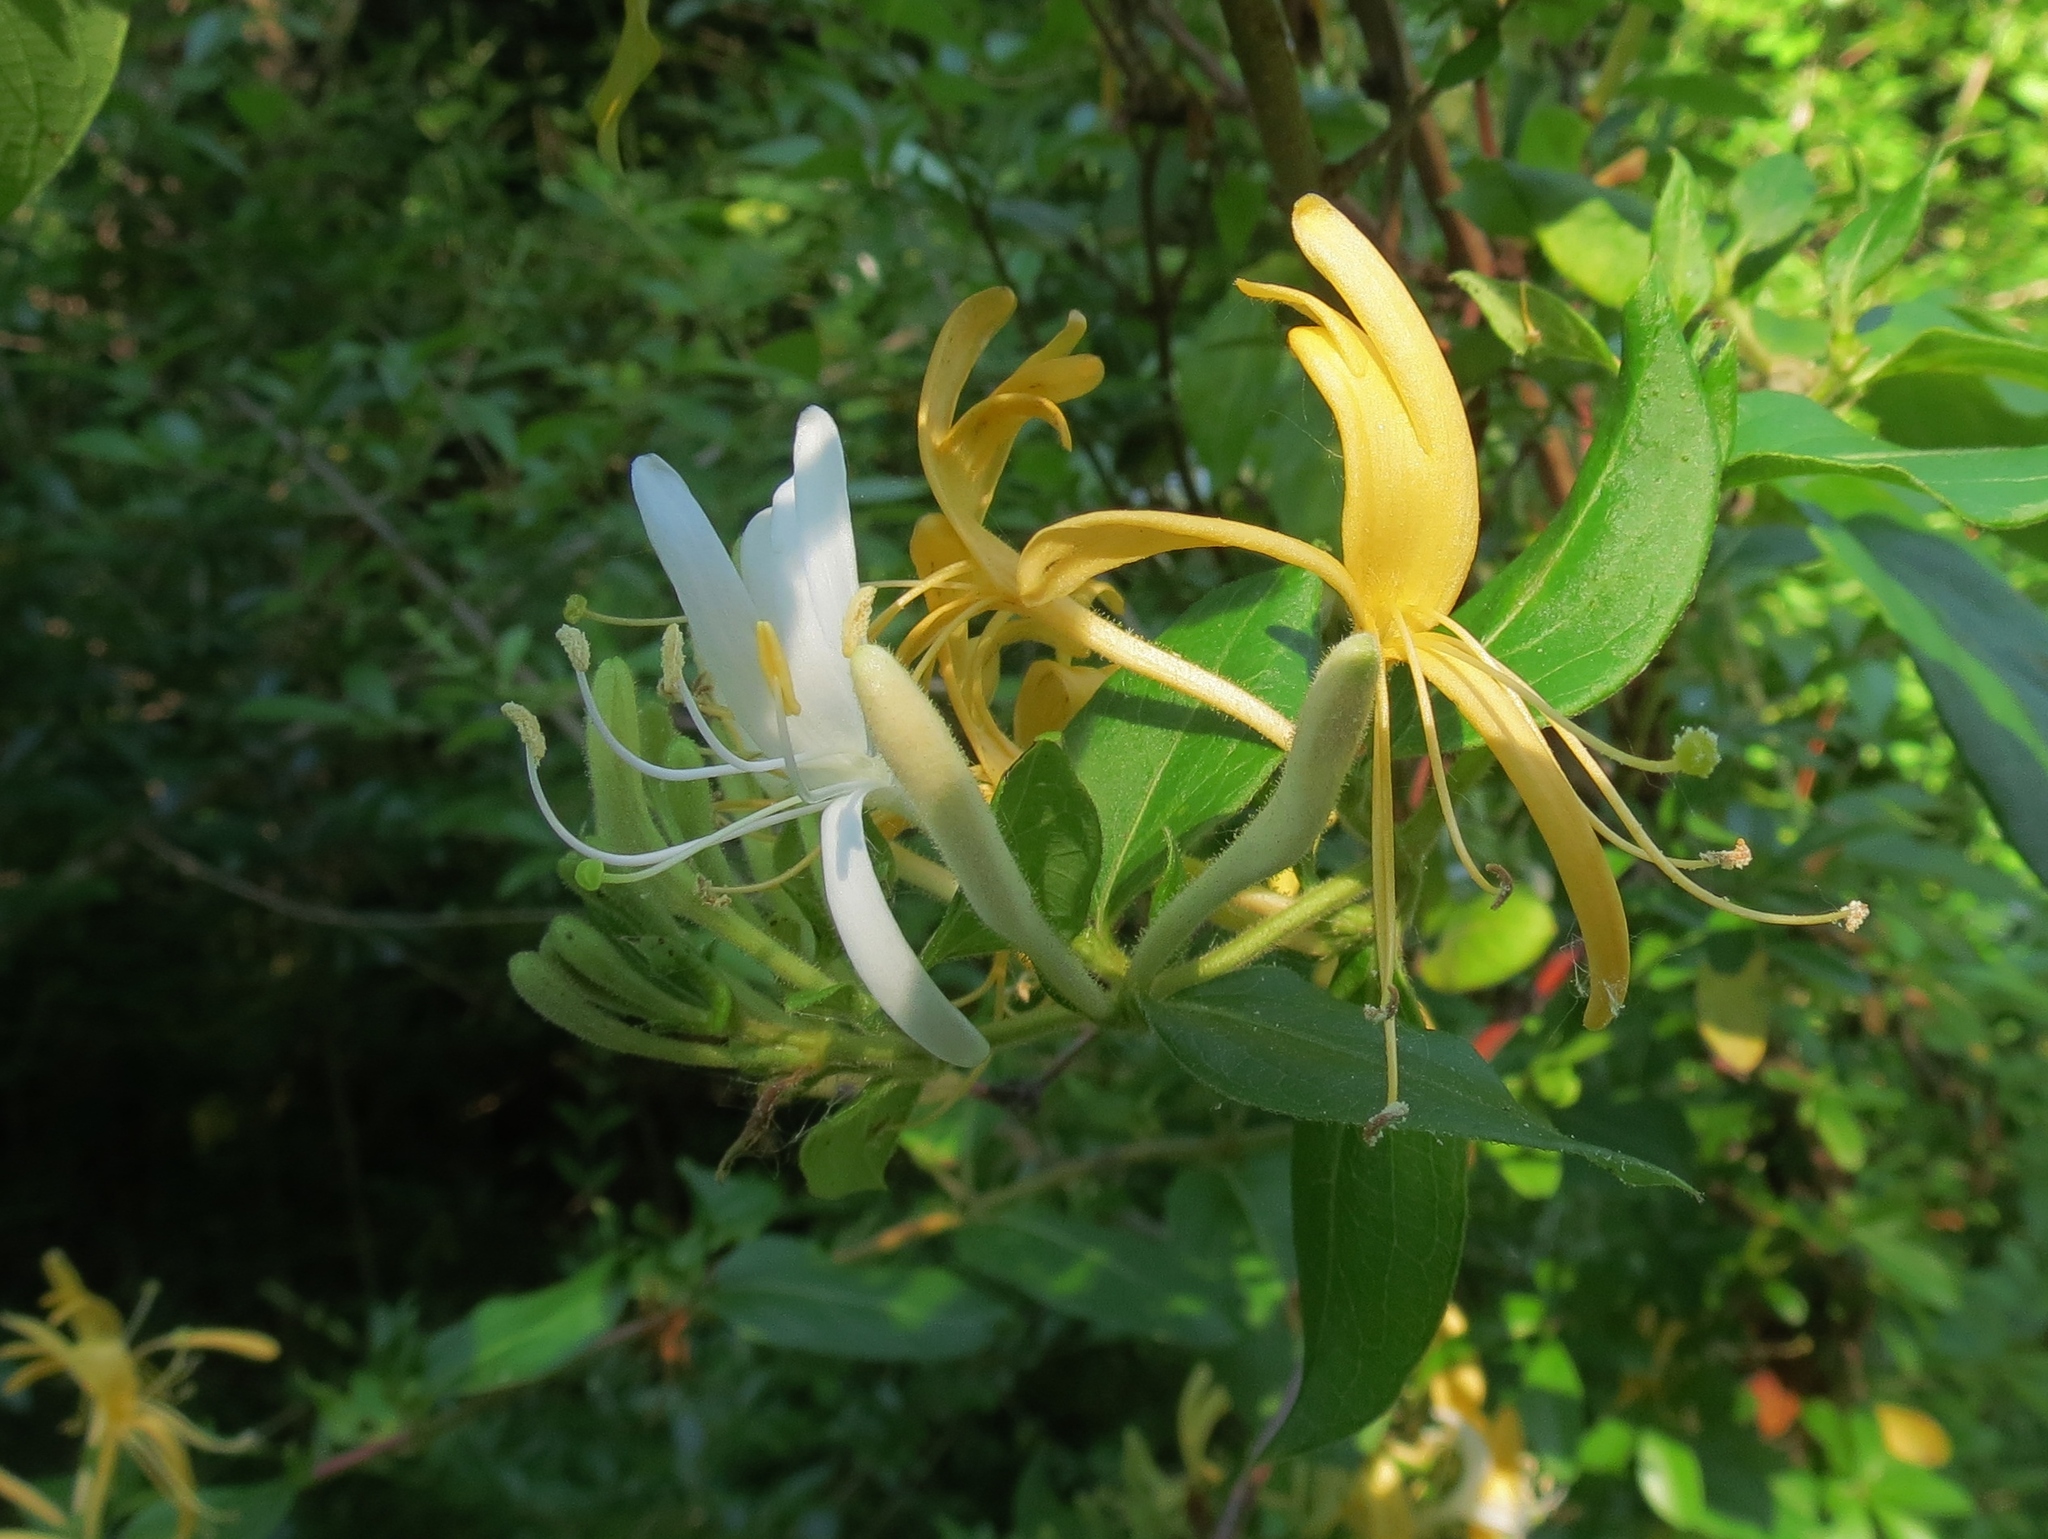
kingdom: Plantae
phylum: Tracheophyta
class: Magnoliopsida
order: Dipsacales
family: Caprifoliaceae
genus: Lonicera
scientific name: Lonicera japonica
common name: Japanese honeysuckle
